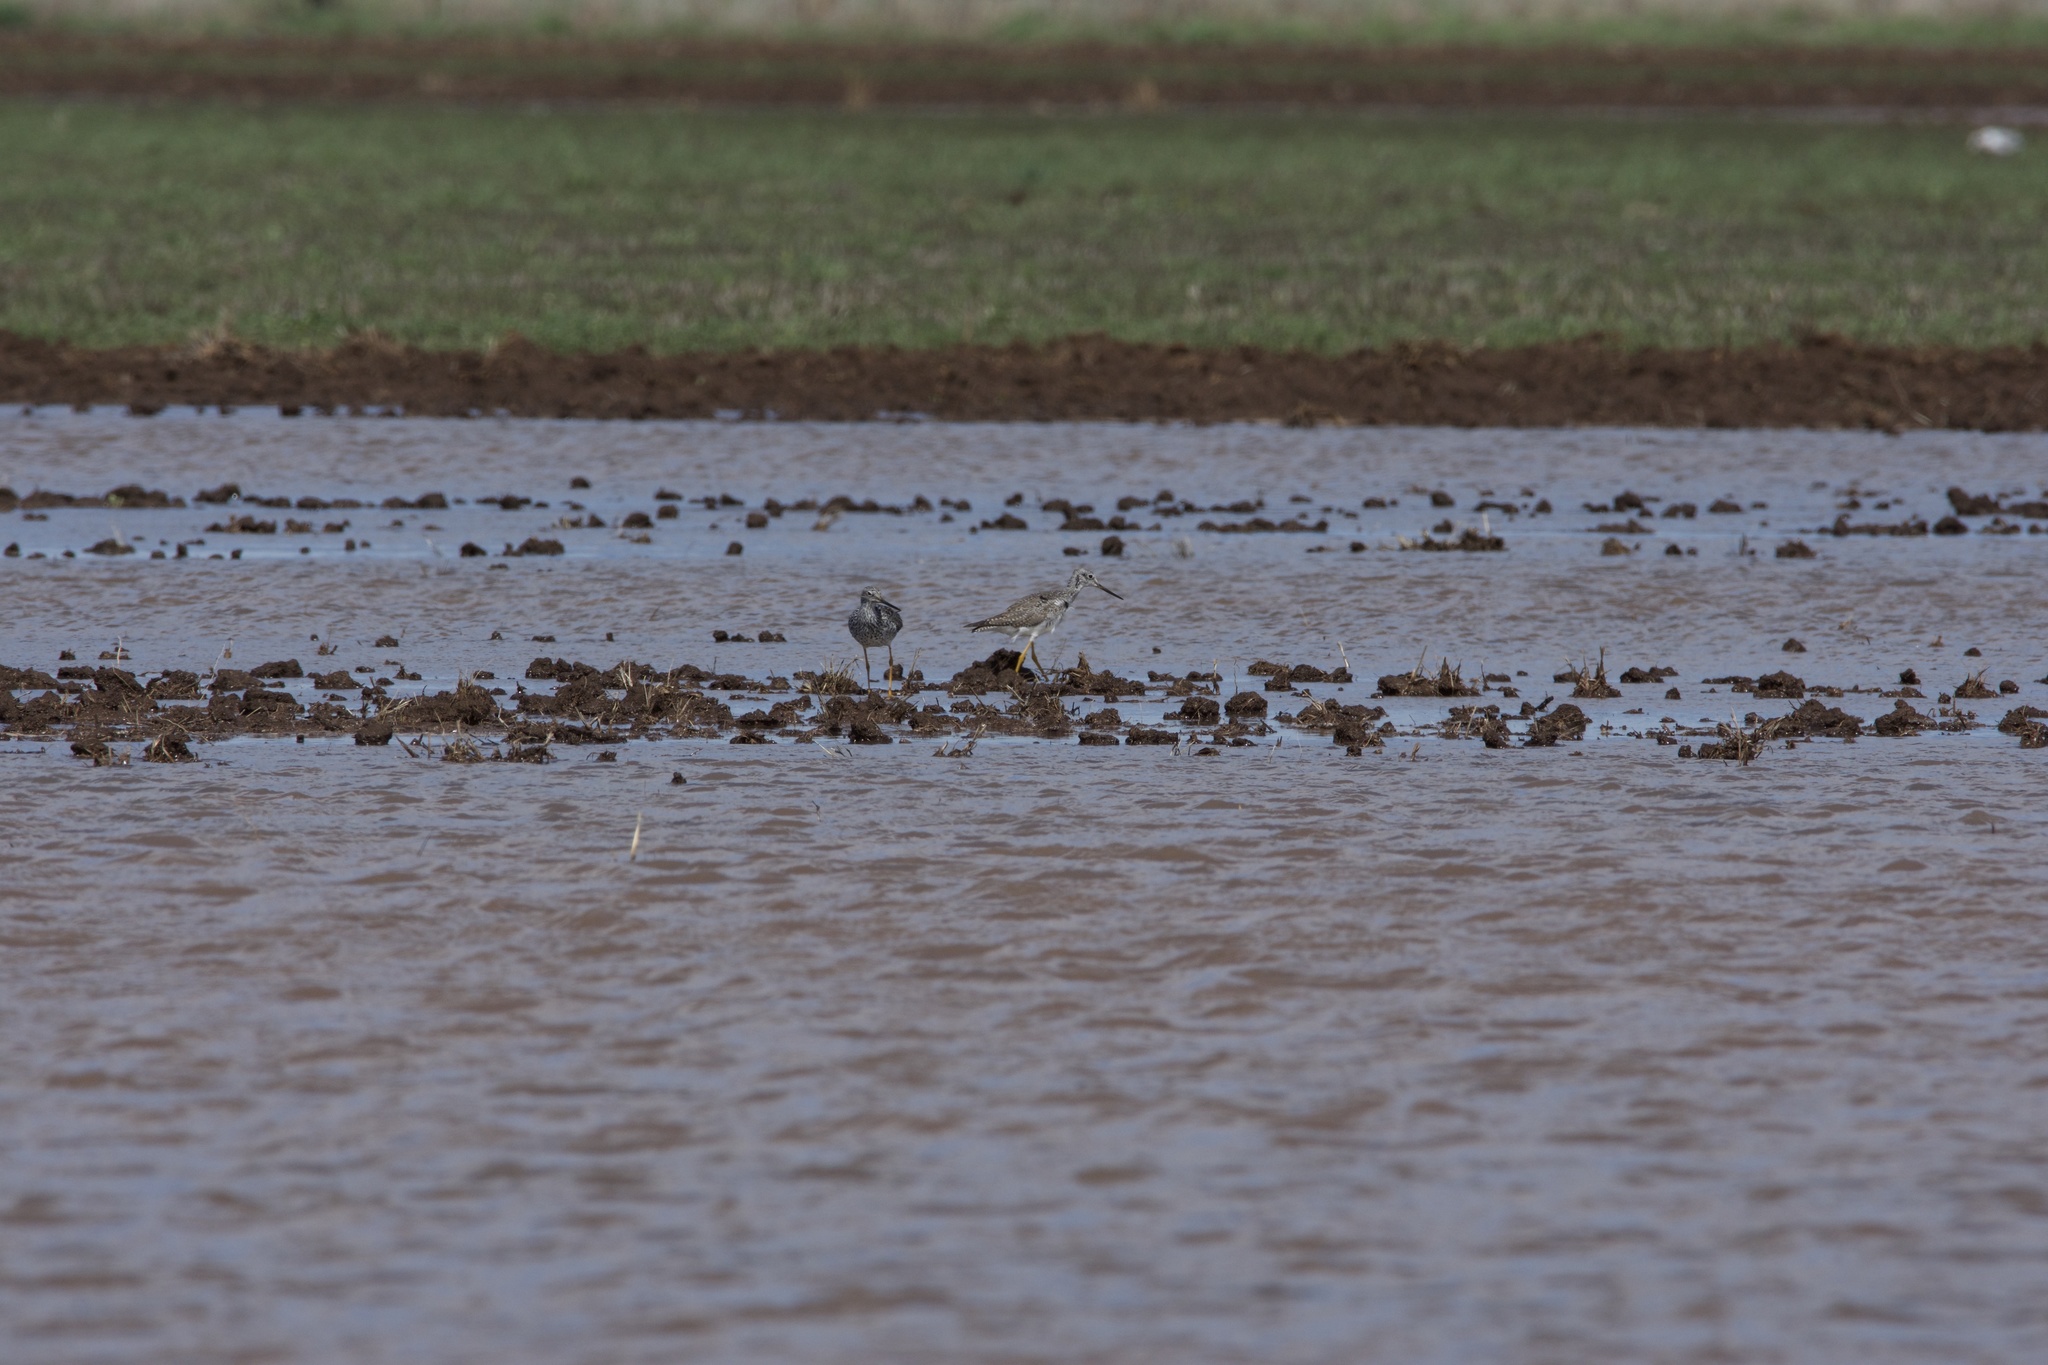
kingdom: Animalia
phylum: Chordata
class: Aves
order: Charadriiformes
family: Scolopacidae
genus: Tringa
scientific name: Tringa melanoleuca
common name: Greater yellowlegs
